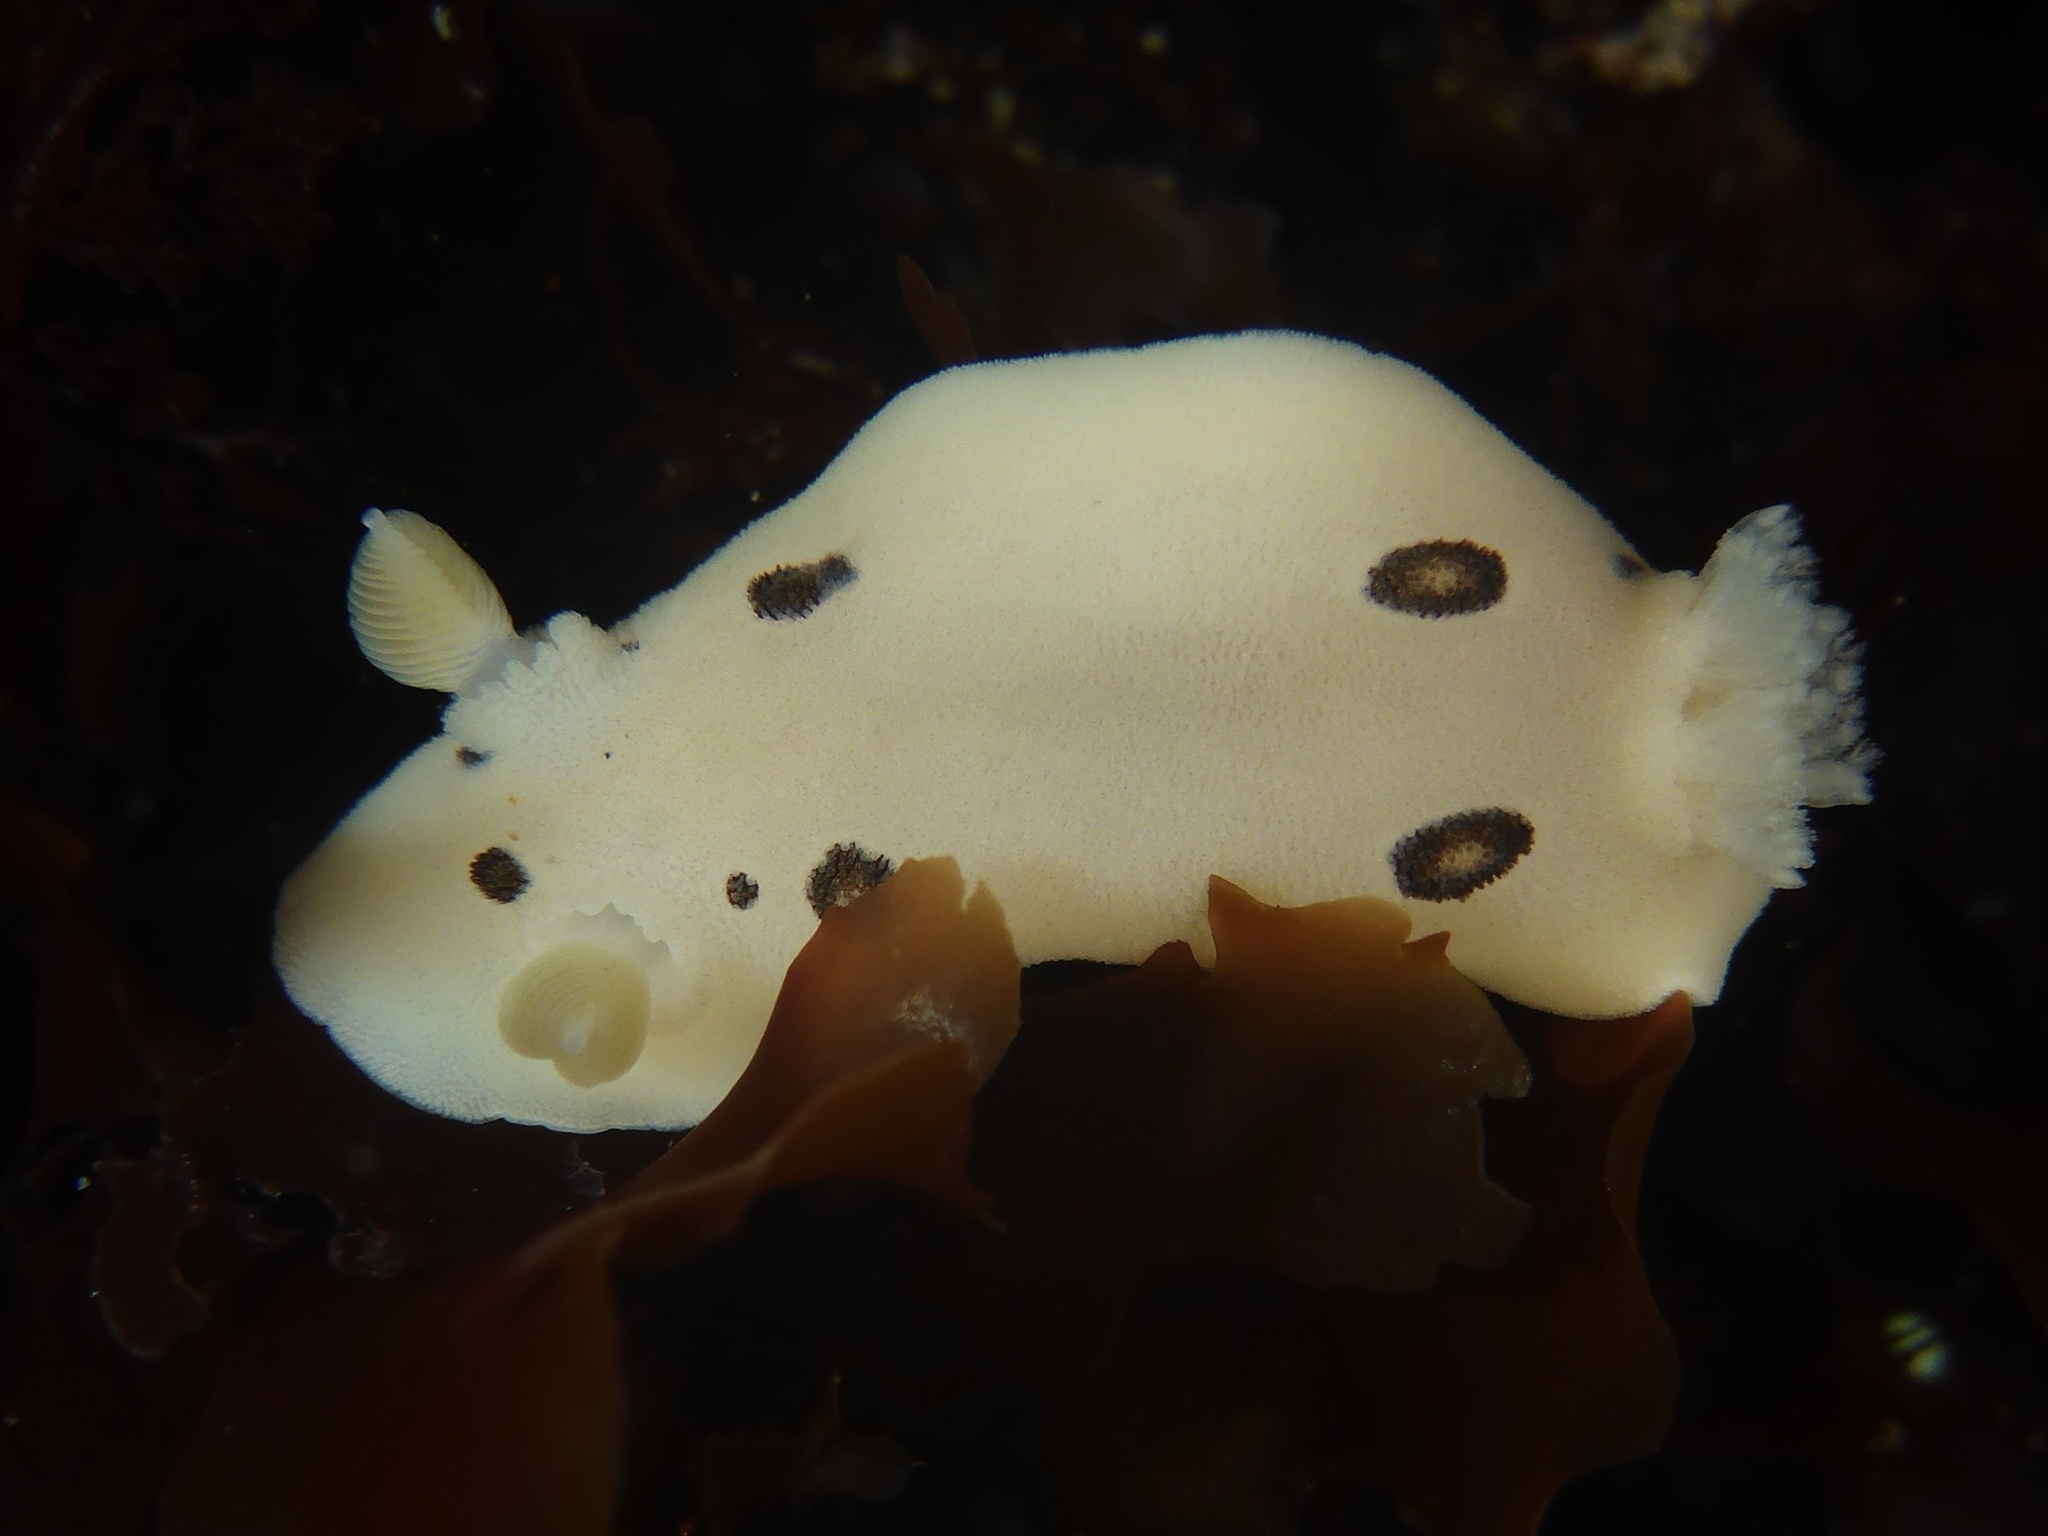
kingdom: Animalia
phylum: Mollusca
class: Gastropoda
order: Nudibranchia
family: Discodorididae
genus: Diaulula
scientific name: Diaulula sandiegensis
